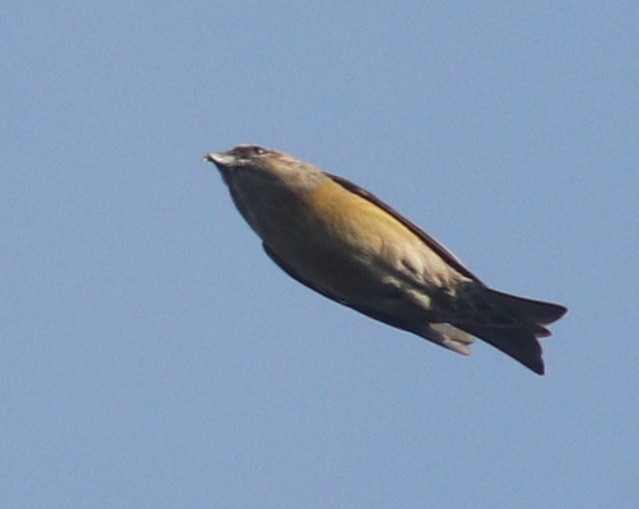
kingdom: Animalia
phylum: Chordata
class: Aves
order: Passeriformes
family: Fringillidae
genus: Loxia
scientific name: Loxia curvirostra
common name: Red crossbill
